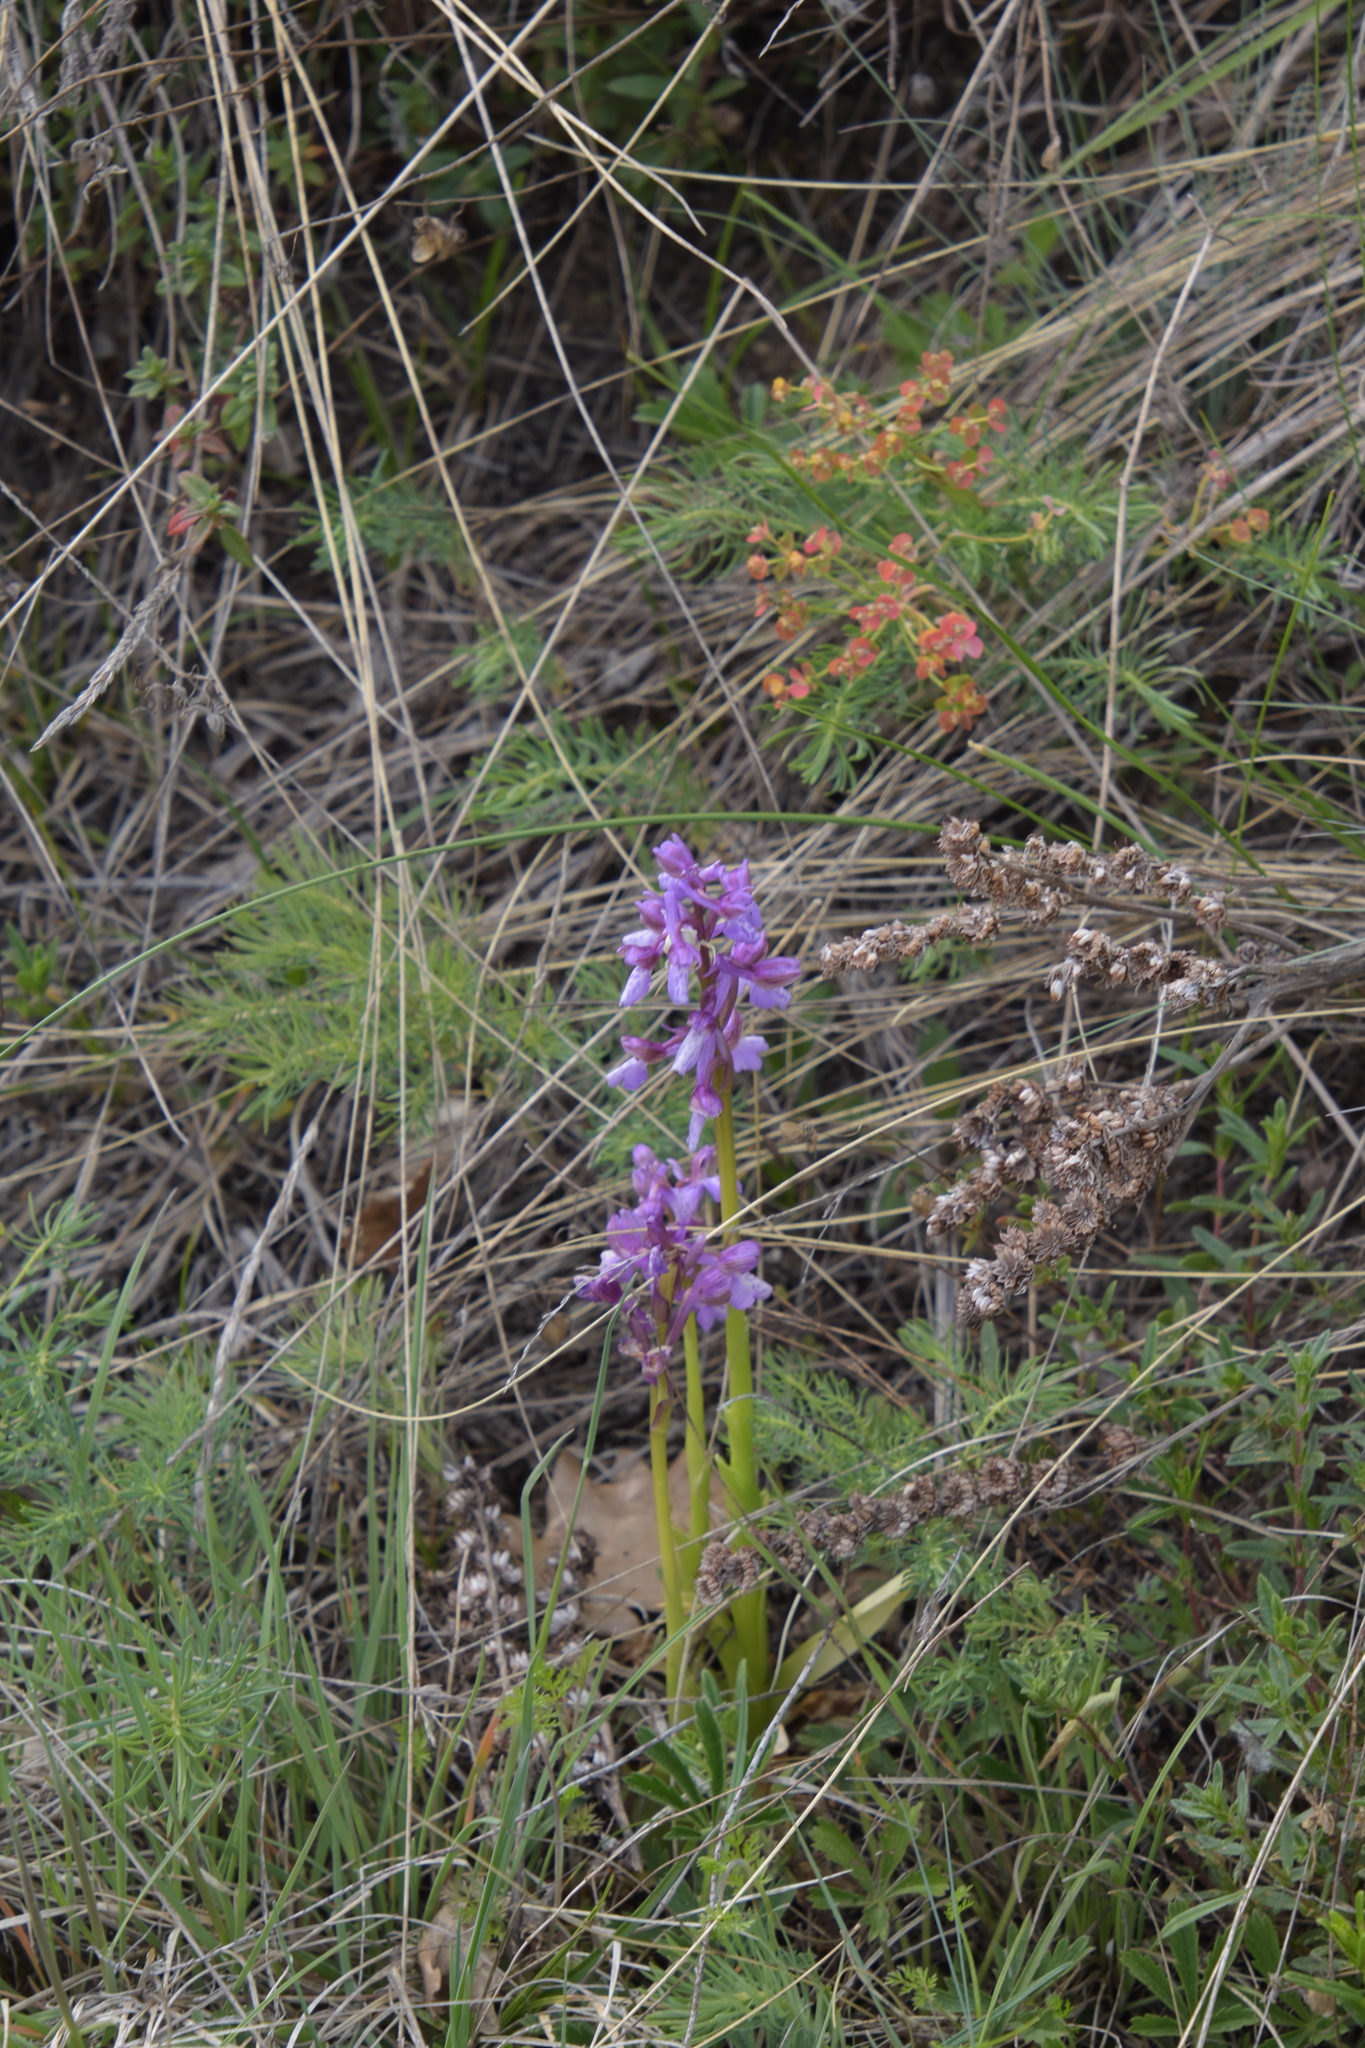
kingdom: Plantae
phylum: Tracheophyta
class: Liliopsida
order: Asparagales
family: Orchidaceae
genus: Anacamptis
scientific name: Anacamptis morio
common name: Green-winged orchid
